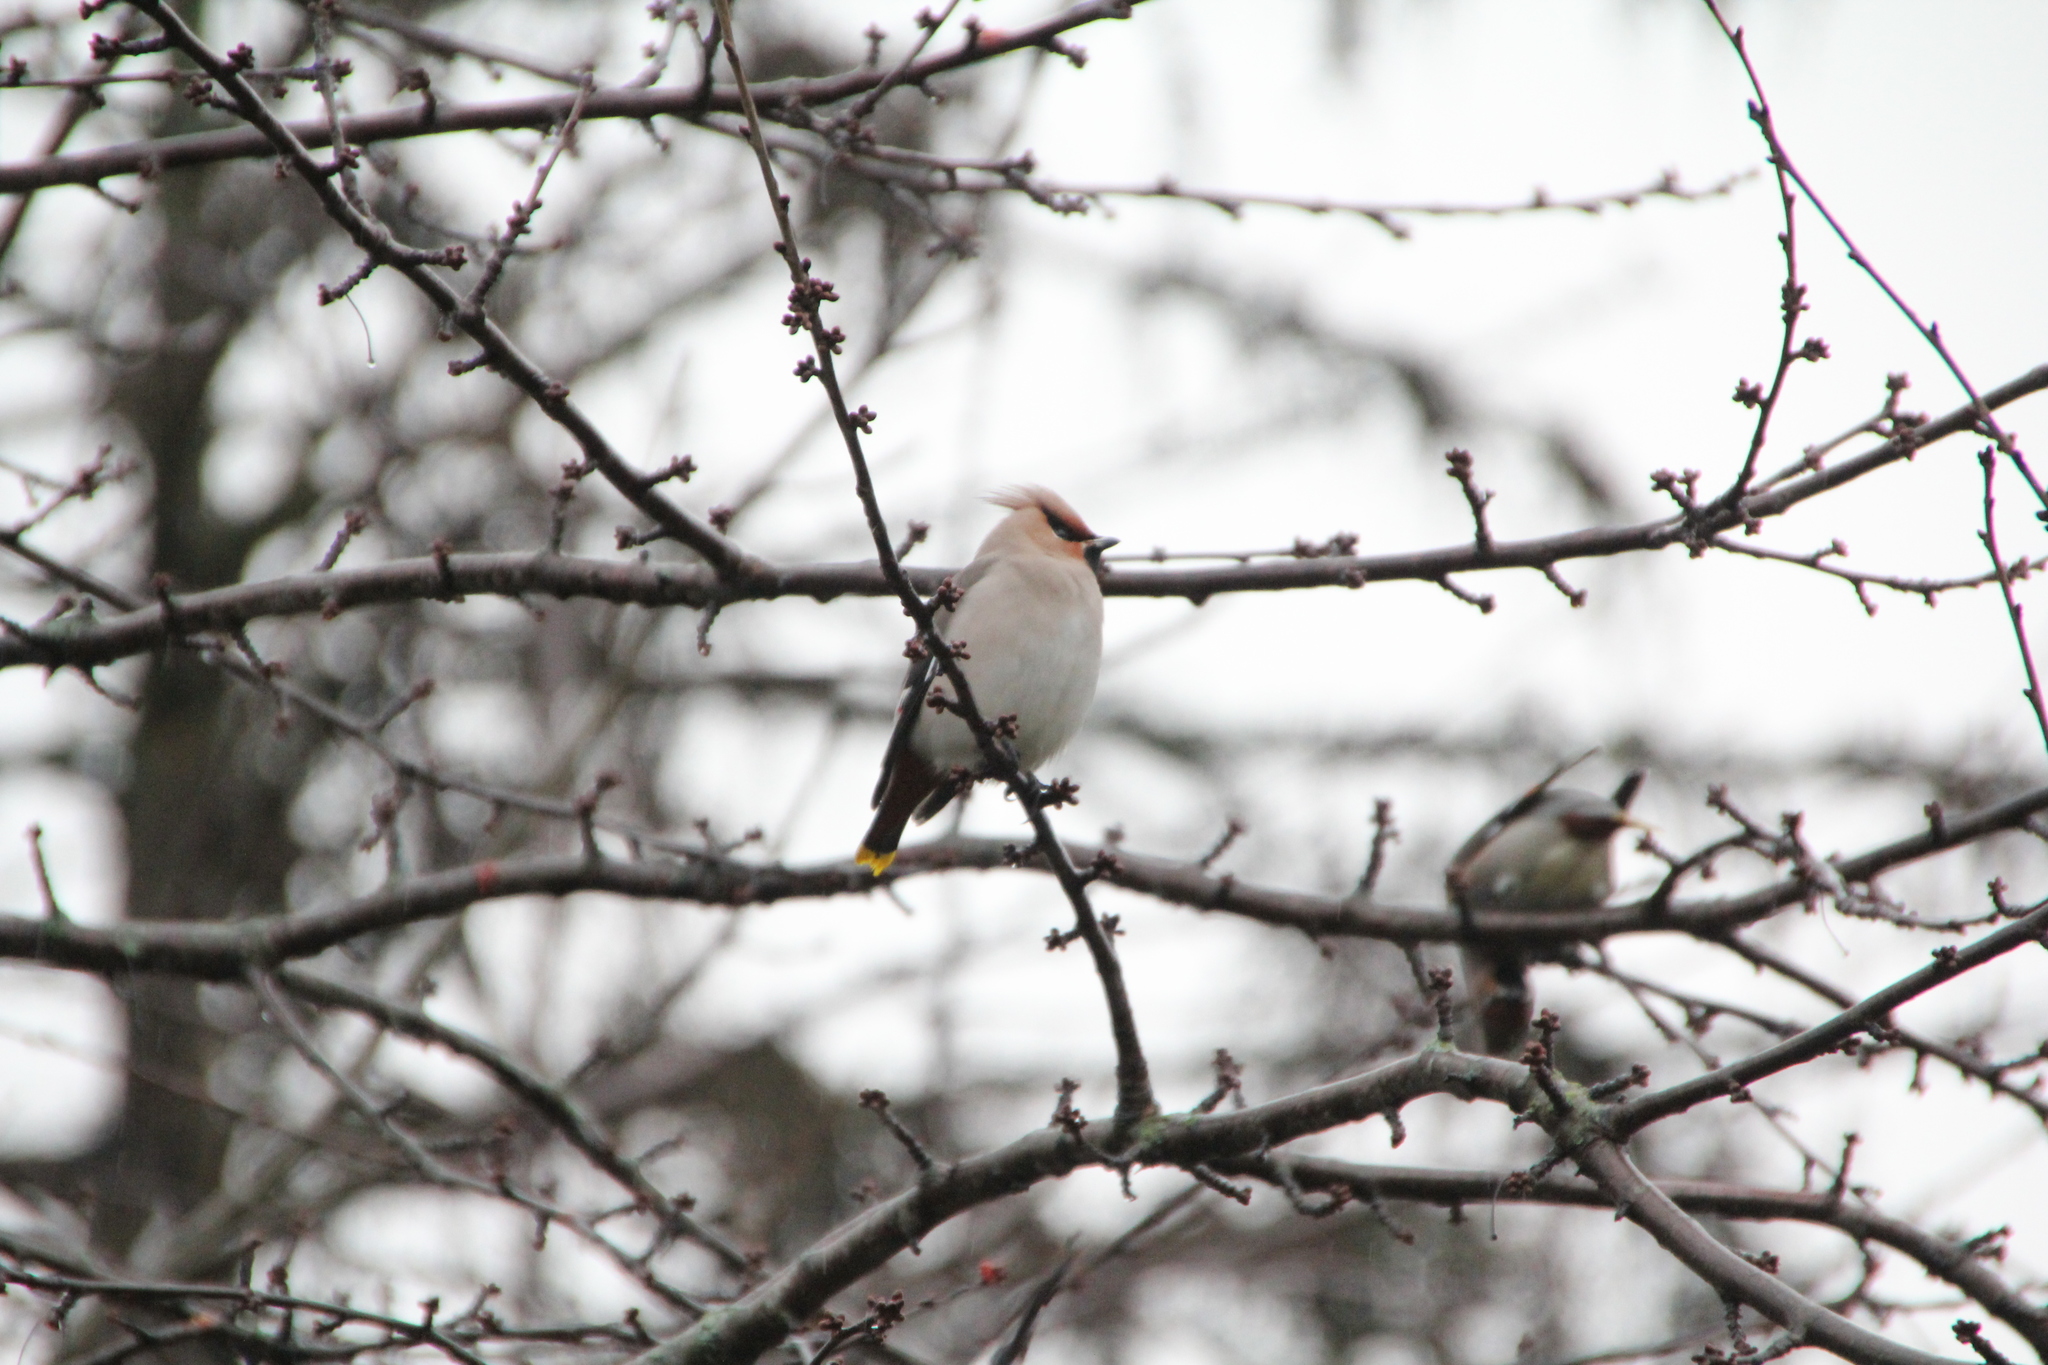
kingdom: Animalia
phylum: Chordata
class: Aves
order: Passeriformes
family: Bombycillidae
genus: Bombycilla
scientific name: Bombycilla garrulus
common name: Bohemian waxwing
